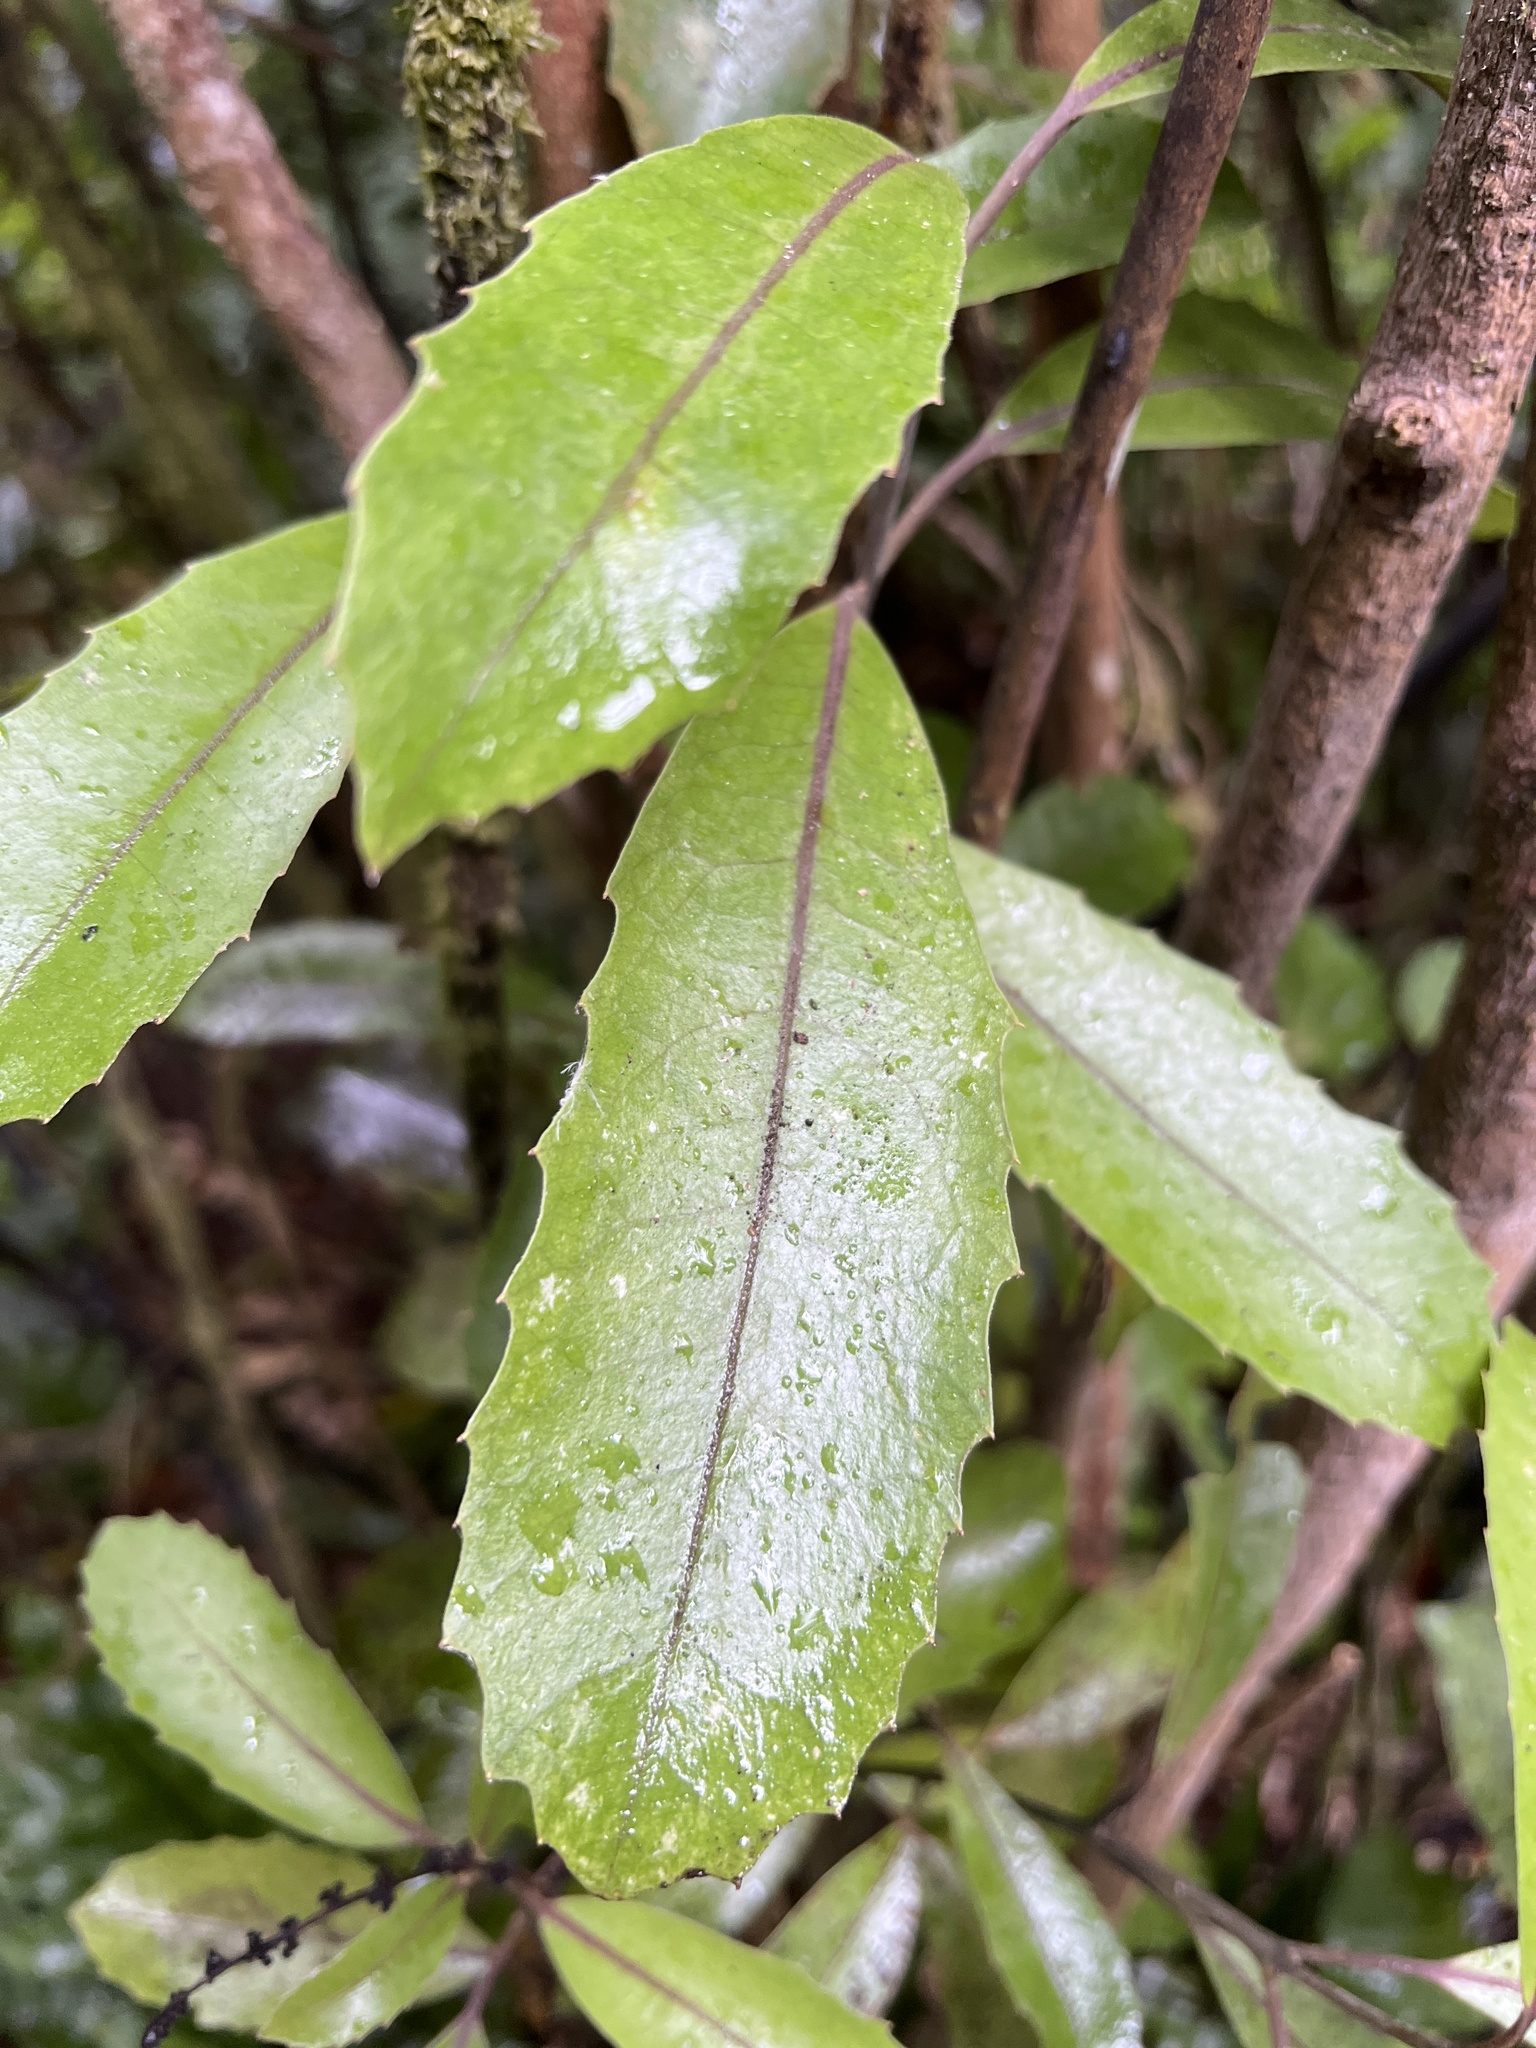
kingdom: Plantae
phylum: Tracheophyta
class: Magnoliopsida
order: Laurales
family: Monimiaceae
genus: Hedycarya
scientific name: Hedycarya arborea
